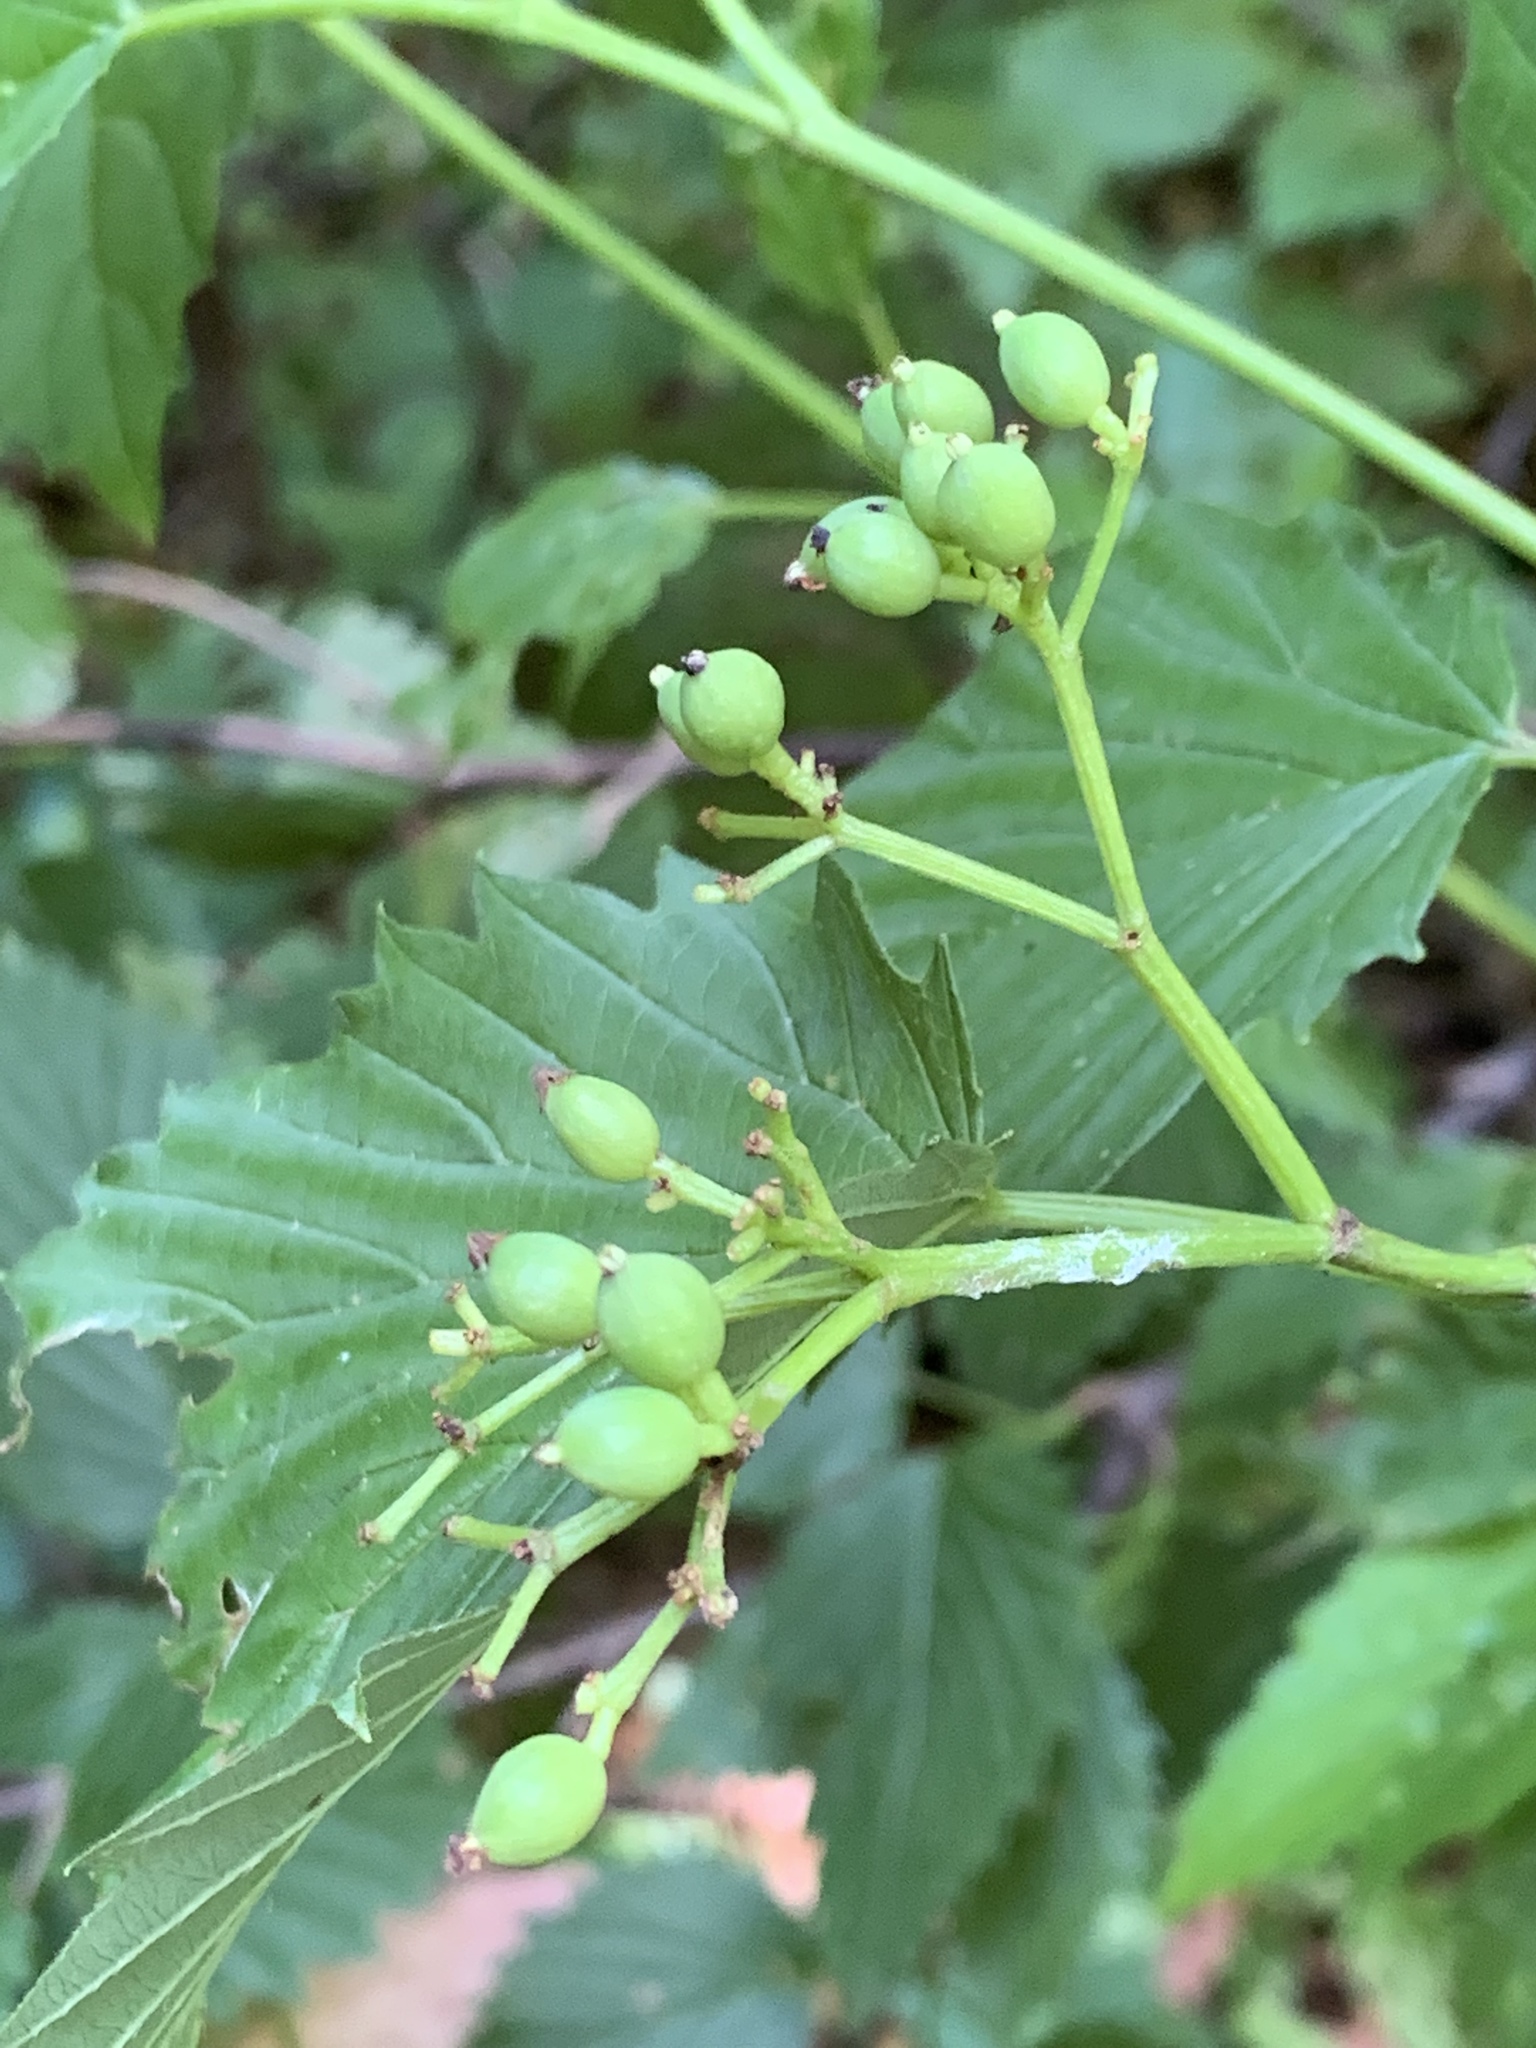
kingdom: Plantae
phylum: Tracheophyta
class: Magnoliopsida
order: Dipsacales
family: Viburnaceae
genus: Viburnum
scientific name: Viburnum dentatum
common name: Arrow-wood
